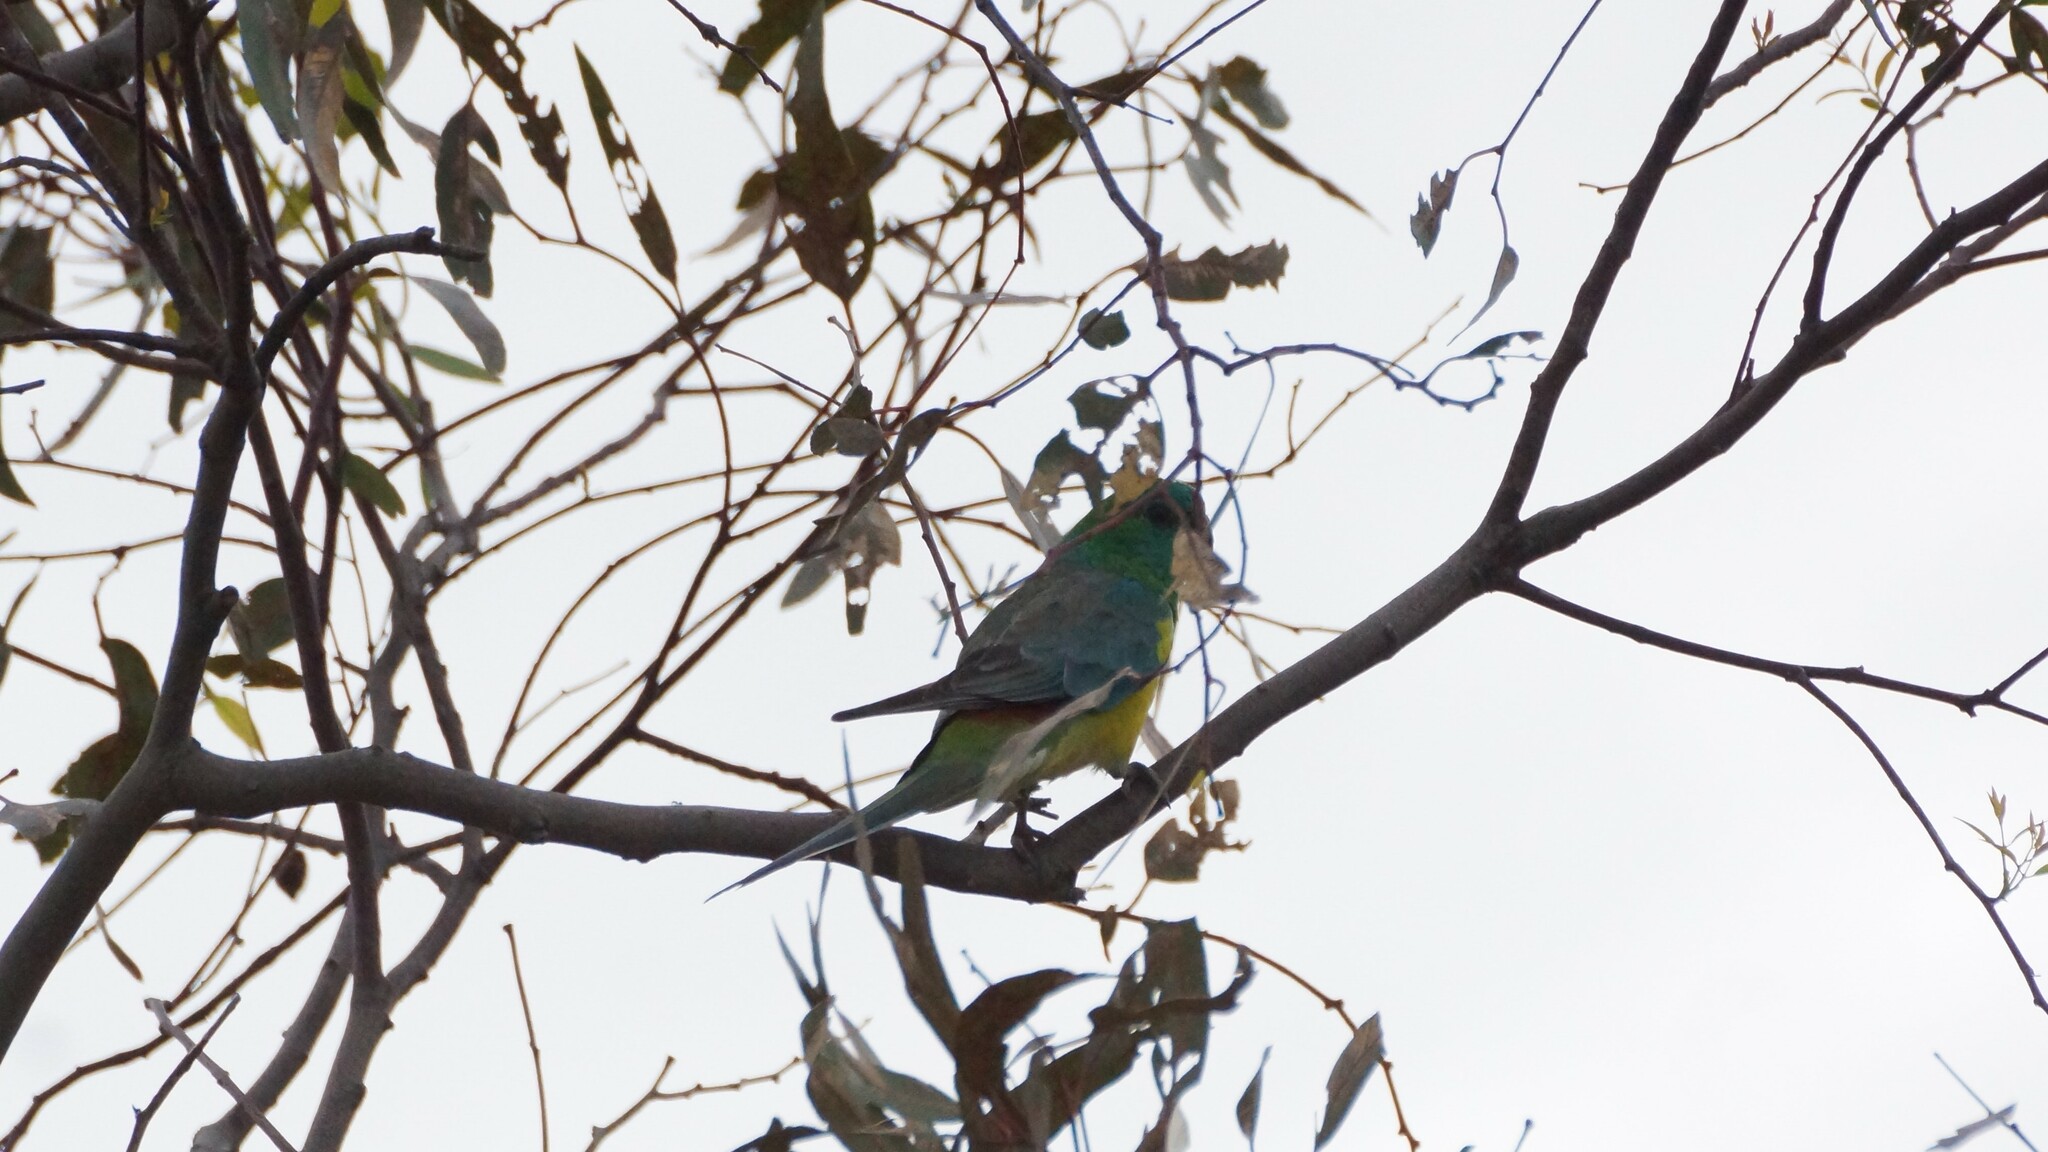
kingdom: Animalia
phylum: Chordata
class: Aves
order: Psittaciformes
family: Psittacidae
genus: Psephotus
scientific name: Psephotus haematonotus
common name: Red-rumped parrot
